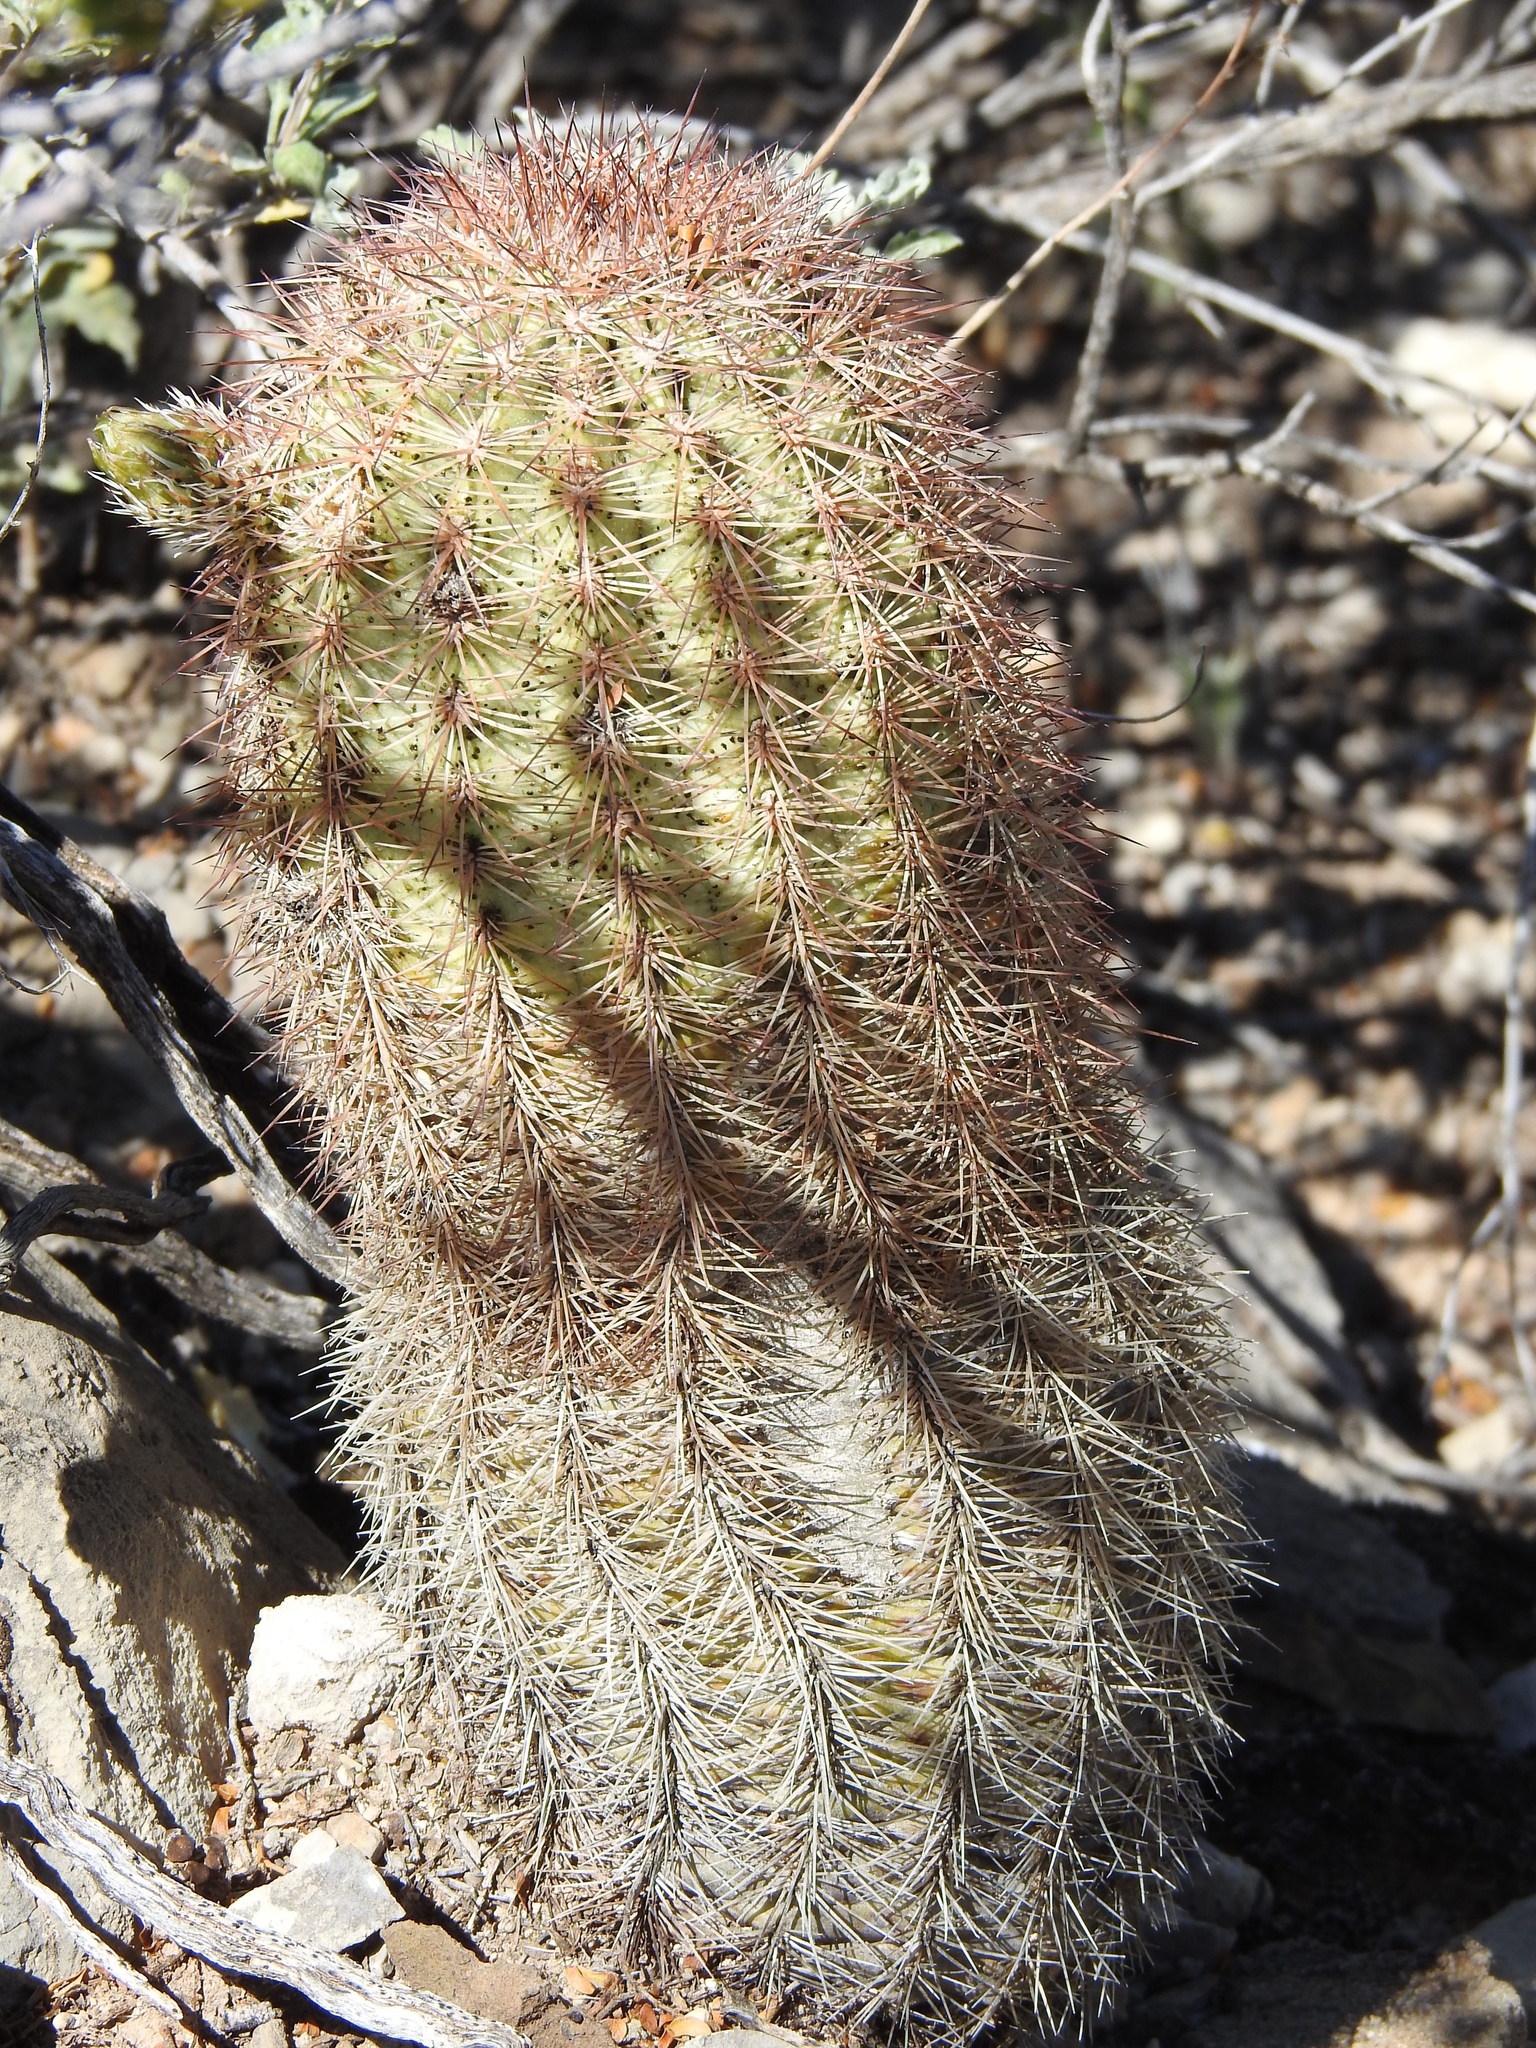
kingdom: Plantae
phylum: Tracheophyta
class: Magnoliopsida
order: Caryophyllales
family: Cactaceae
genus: Echinocereus
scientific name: Echinocereus dasyacanthus
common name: Spiny hedgehog cactus
